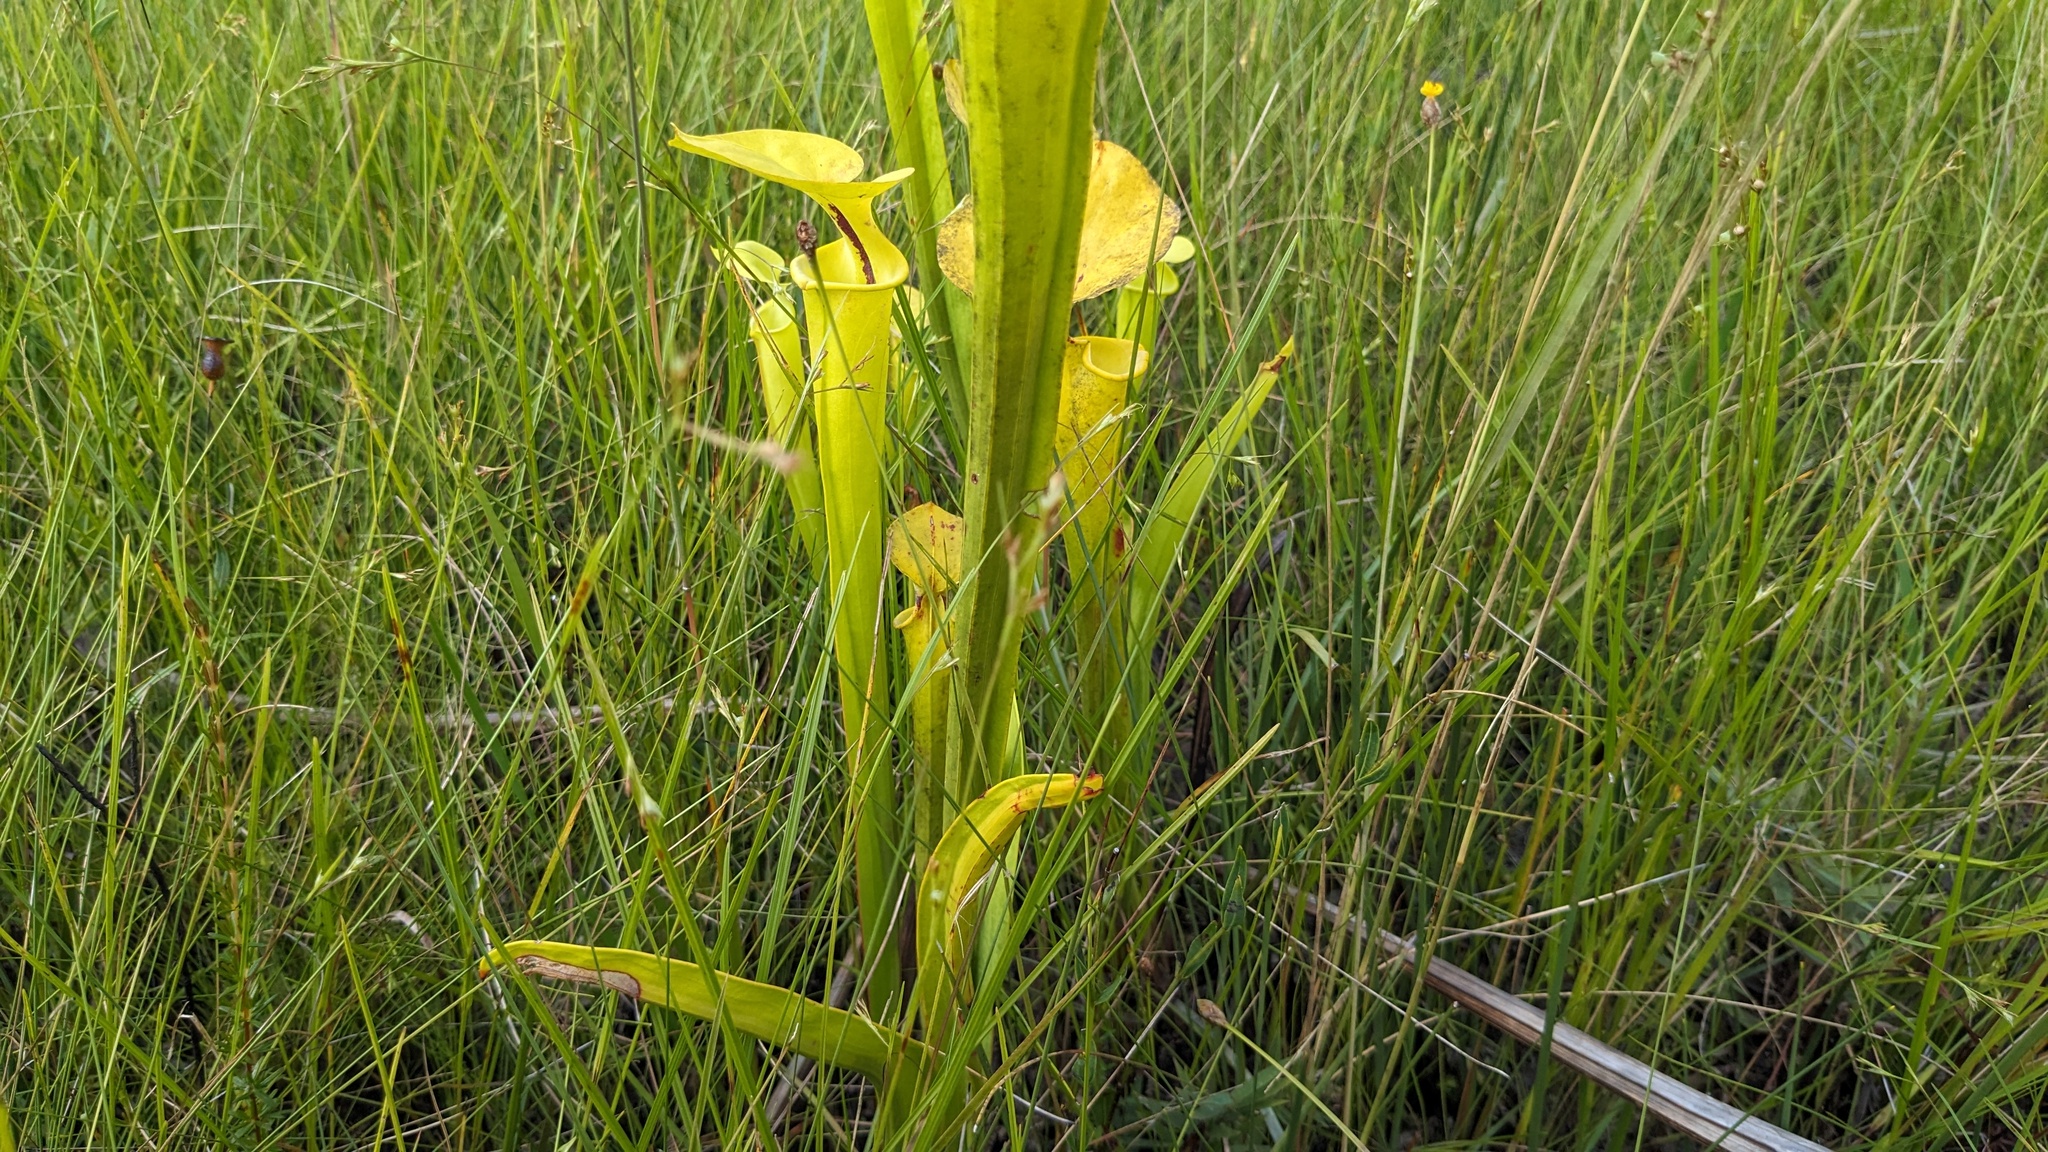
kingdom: Plantae
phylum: Tracheophyta
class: Magnoliopsida
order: Ericales
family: Sarraceniaceae
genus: Sarracenia
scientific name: Sarracenia flava
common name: Trumpets
